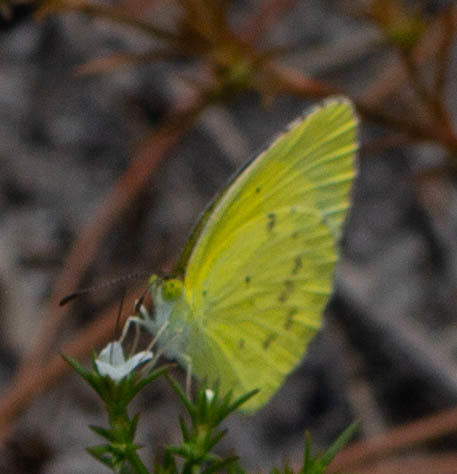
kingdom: Animalia
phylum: Arthropoda
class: Insecta
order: Lepidoptera
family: Pieridae
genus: Pyrisitia
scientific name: Pyrisitia lisa
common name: Little yellow
